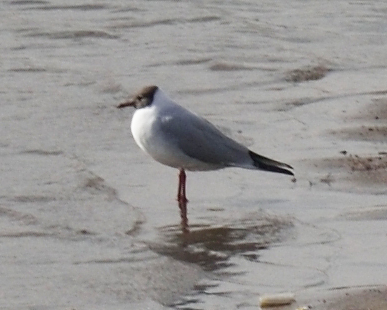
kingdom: Animalia
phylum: Chordata
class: Aves
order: Charadriiformes
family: Laridae
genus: Chroicocephalus
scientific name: Chroicocephalus ridibundus
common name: Black-headed gull
